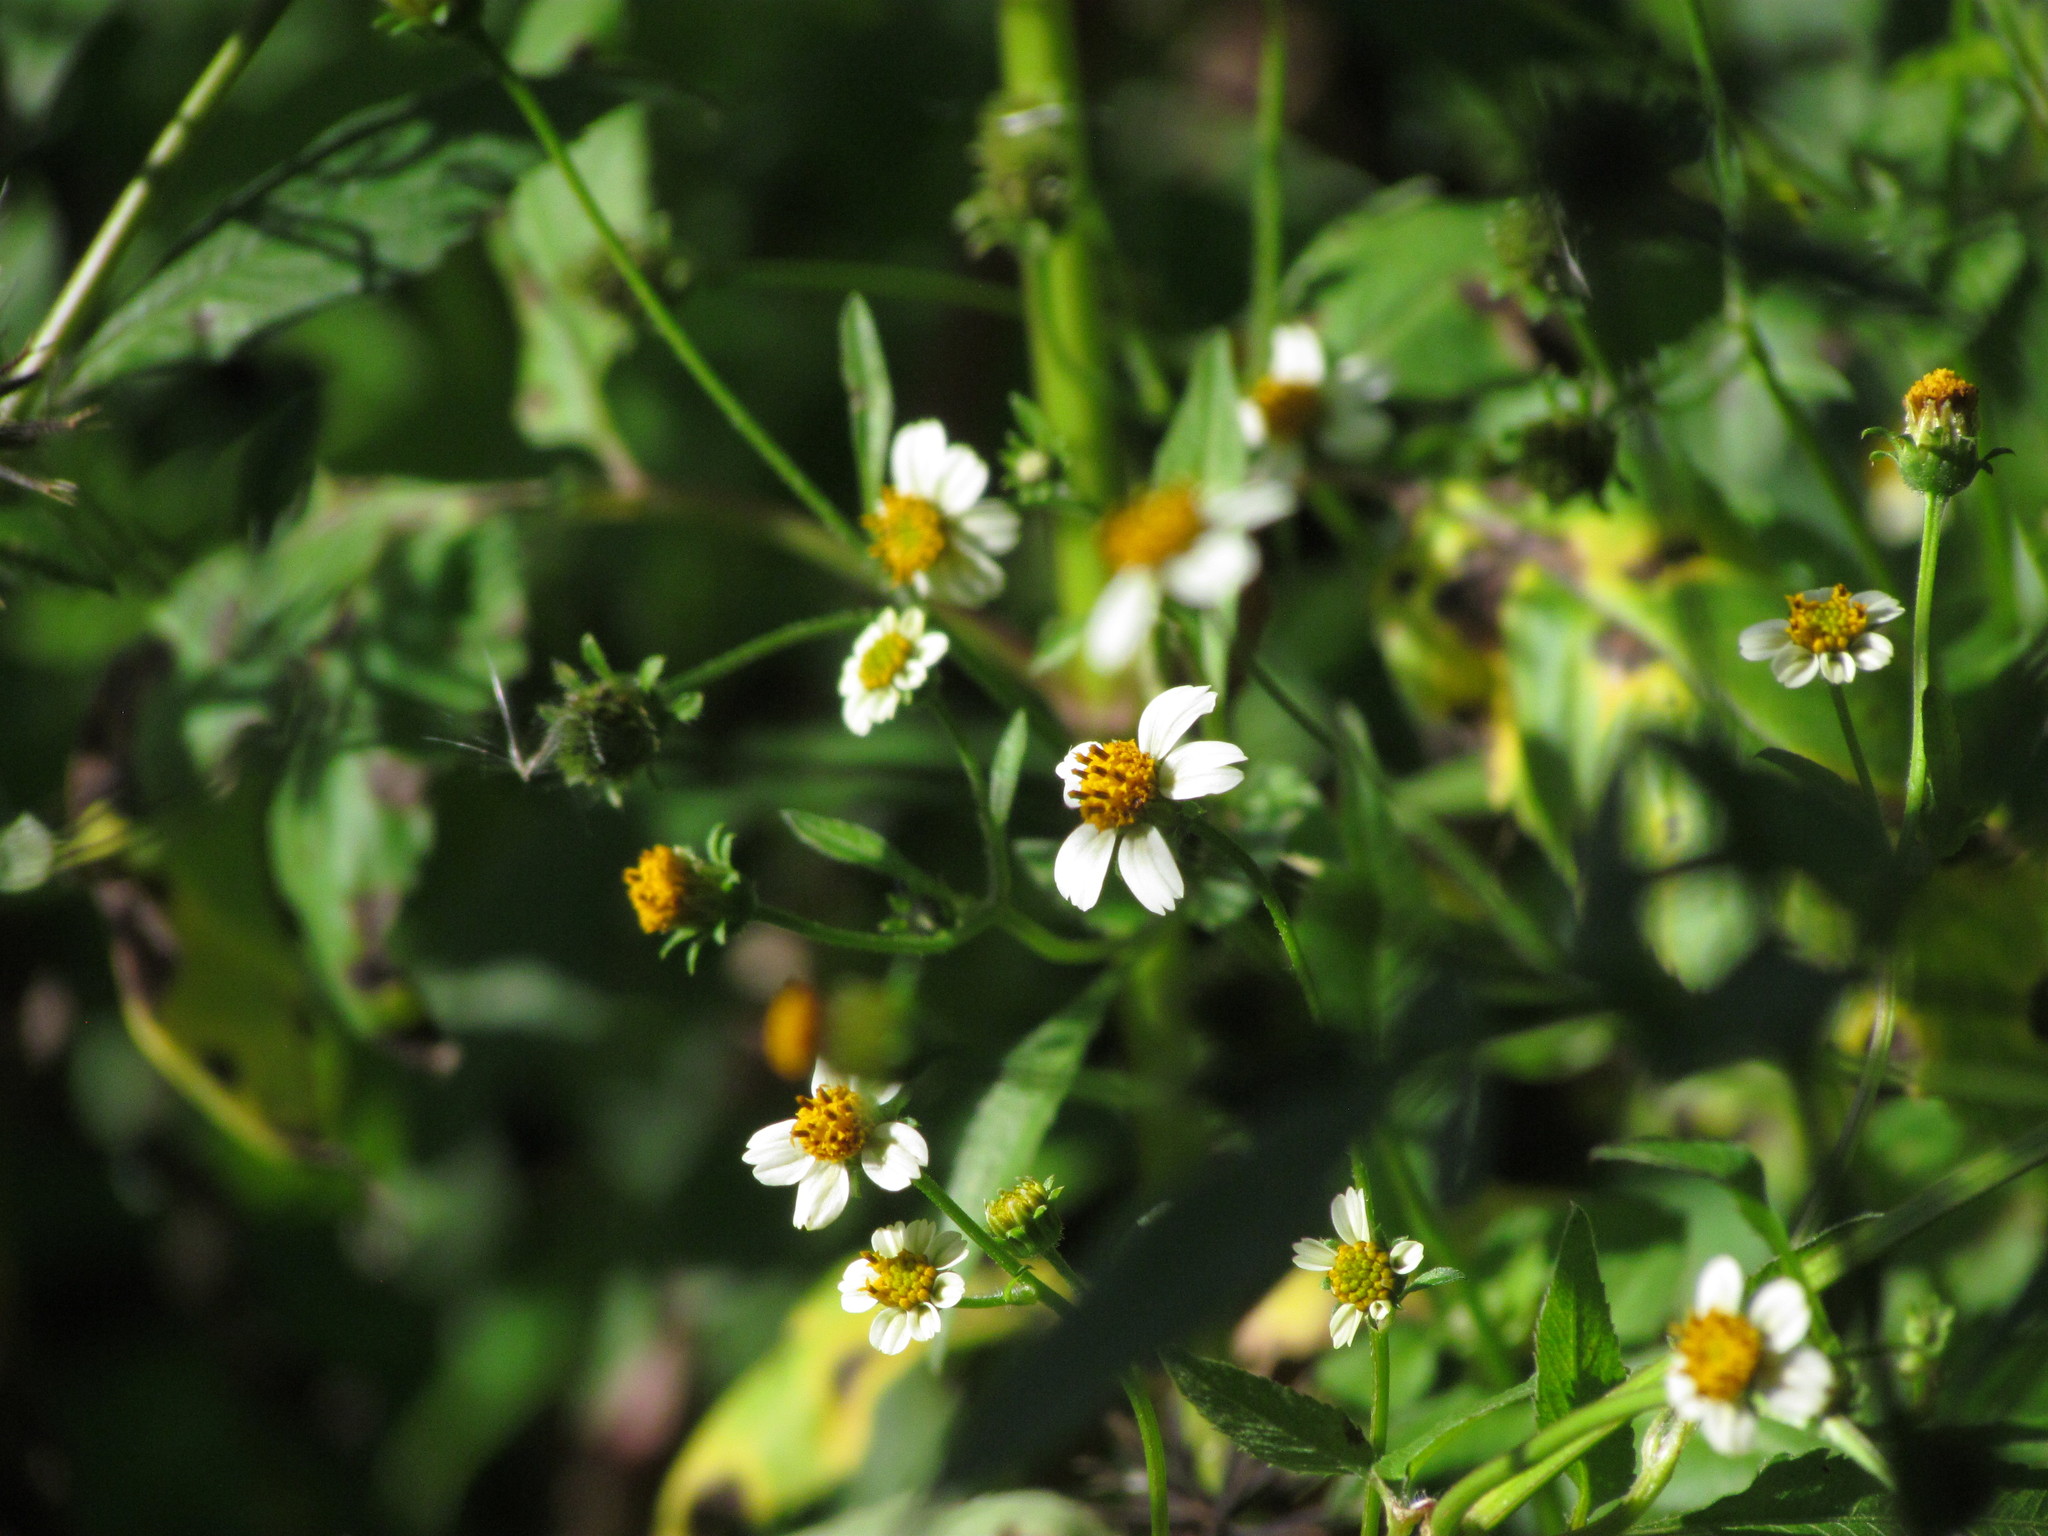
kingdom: Plantae
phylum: Tracheophyta
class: Magnoliopsida
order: Asterales
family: Asteraceae
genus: Bidens
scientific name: Bidens pilosa
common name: Black-jack
